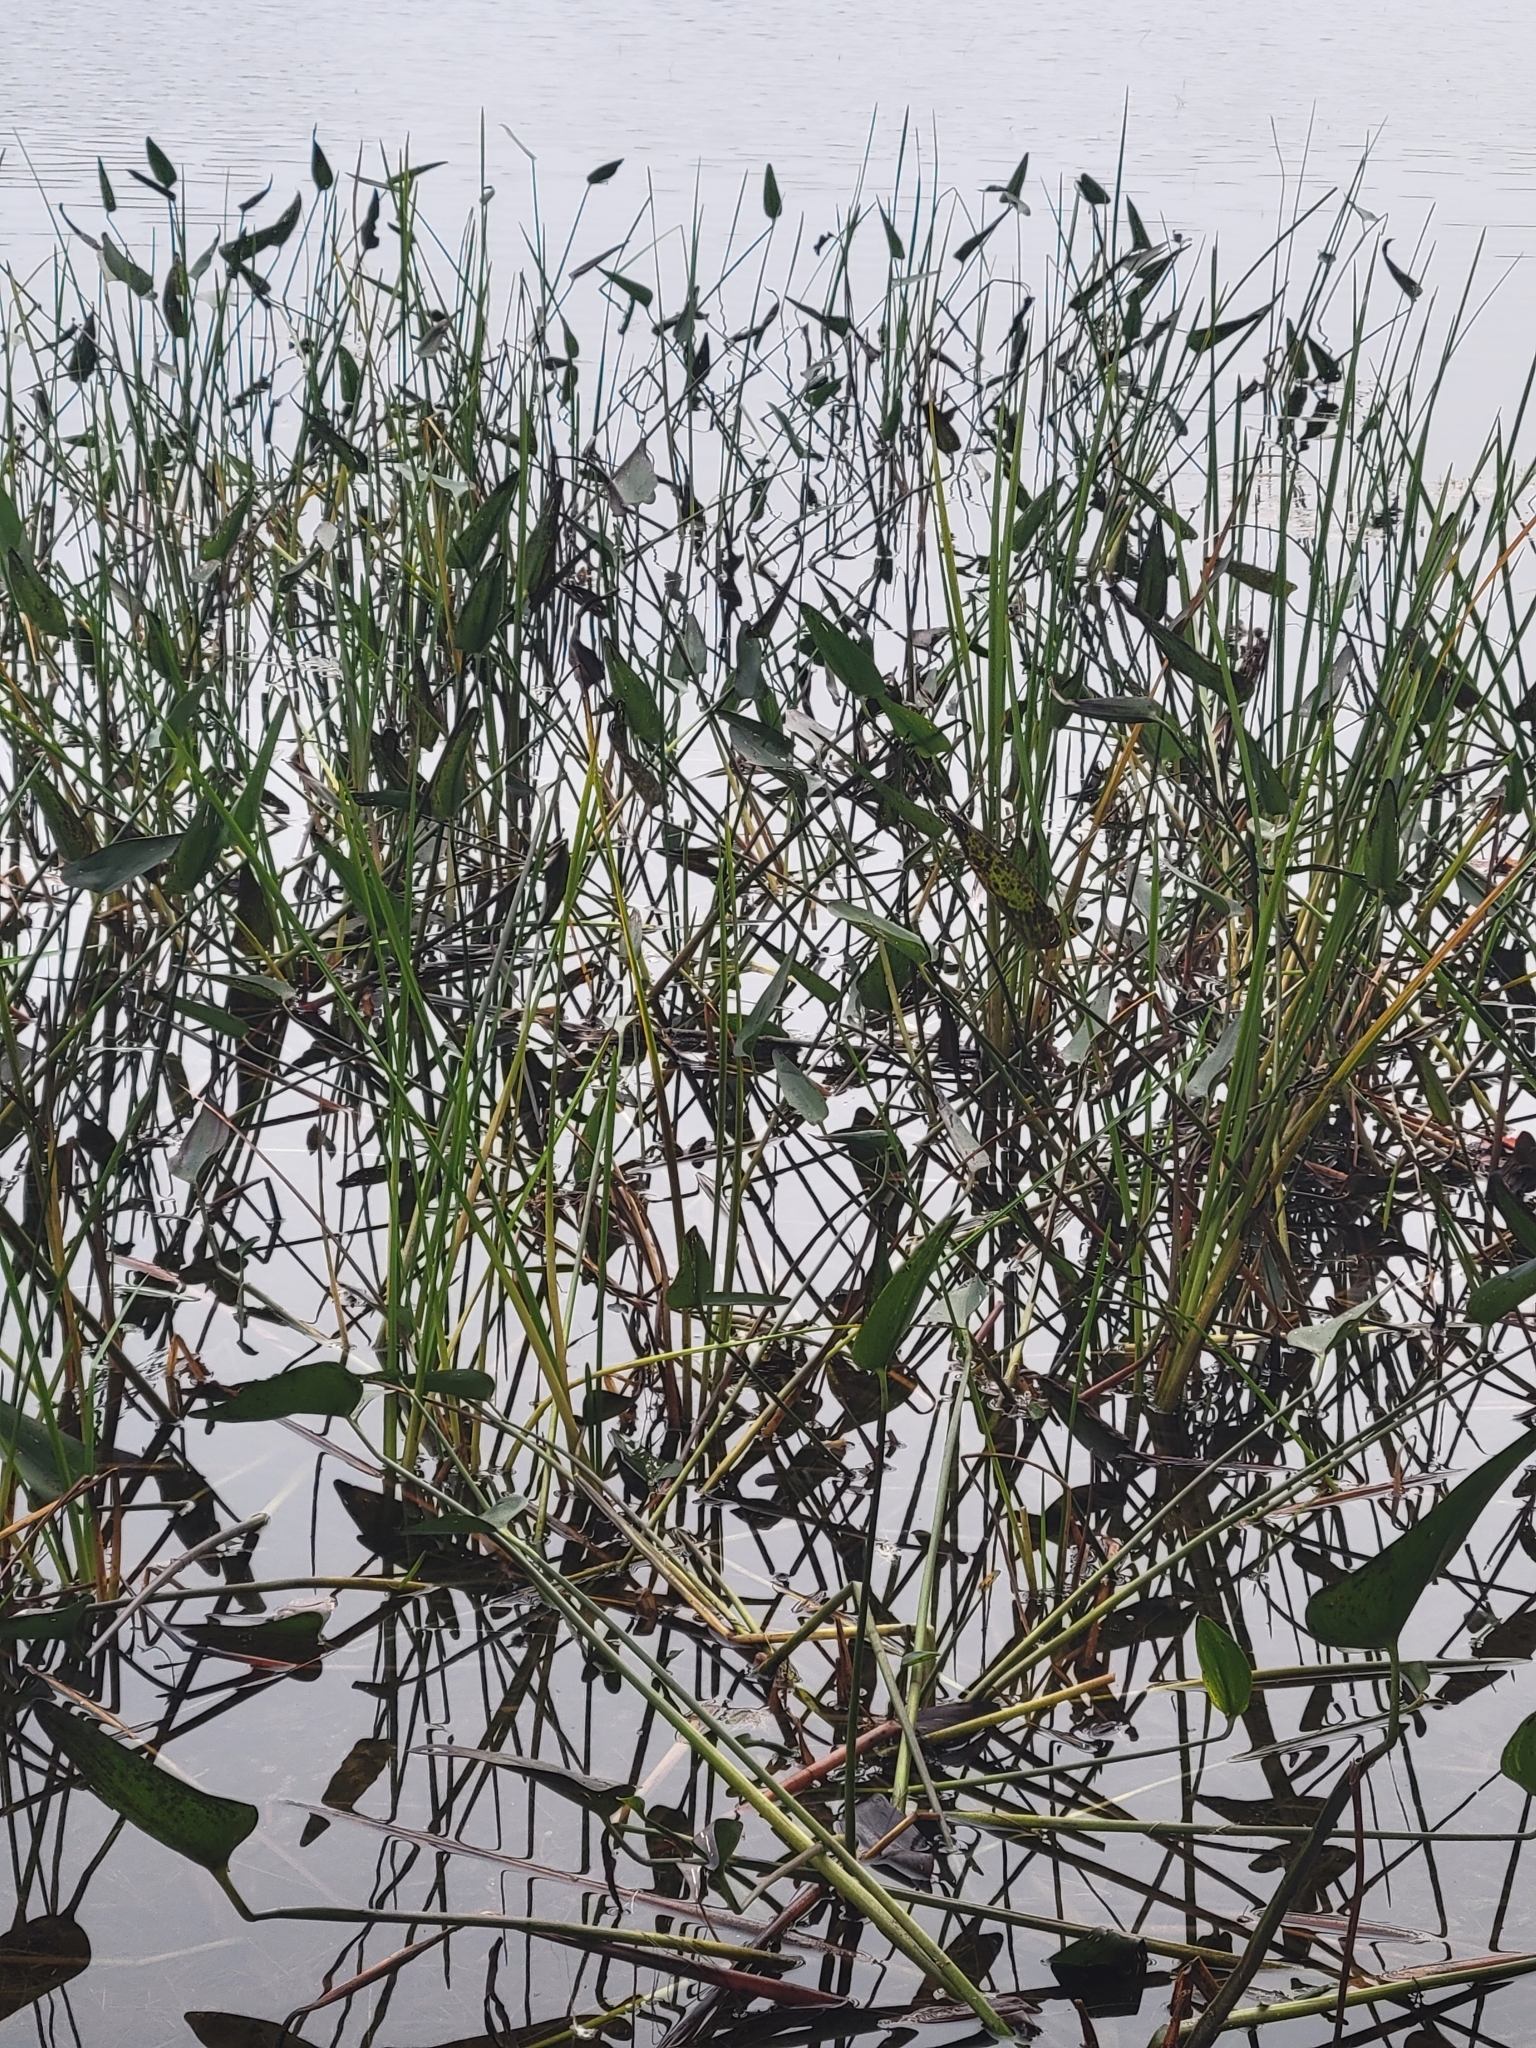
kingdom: Plantae
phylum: Tracheophyta
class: Liliopsida
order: Commelinales
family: Pontederiaceae
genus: Pontederia
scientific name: Pontederia cordata
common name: Pickerelweed
